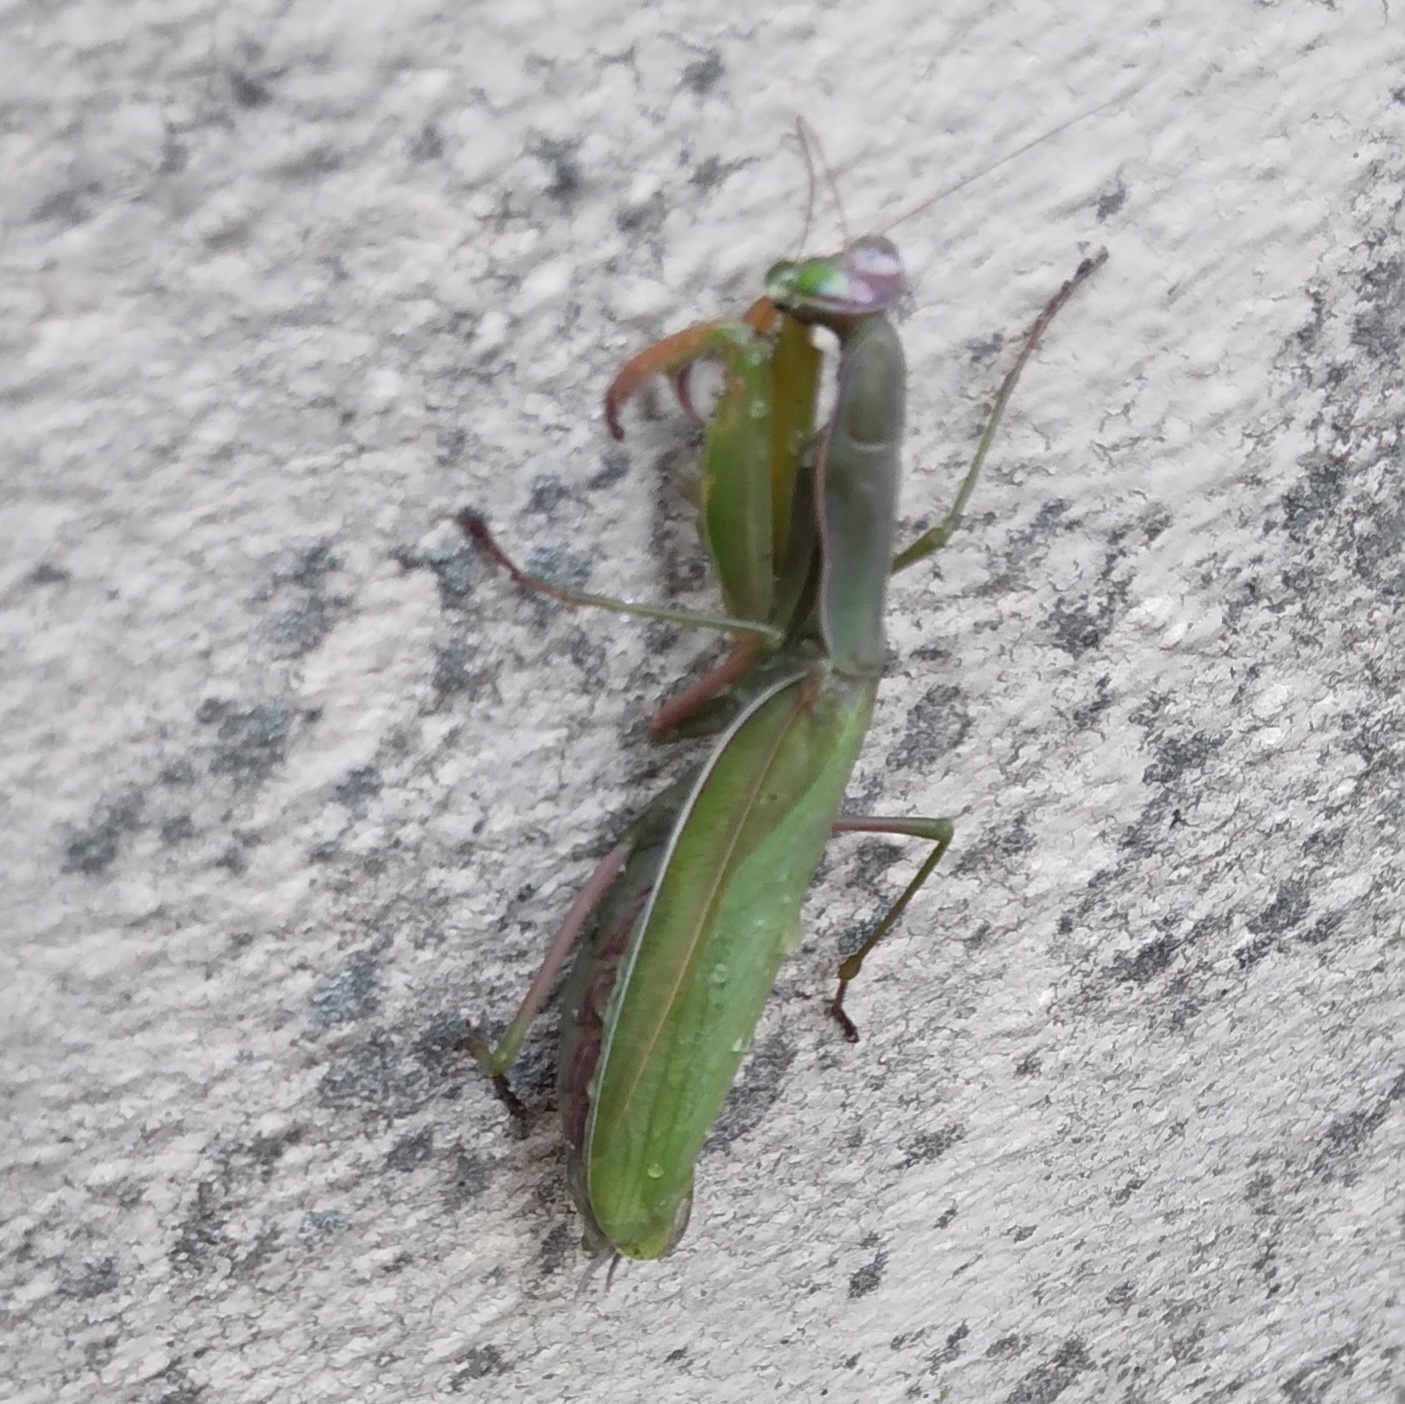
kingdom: Animalia
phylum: Arthropoda
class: Insecta
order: Mantodea
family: Mantidae
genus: Mantis
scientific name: Mantis religiosa
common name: Praying mantis
